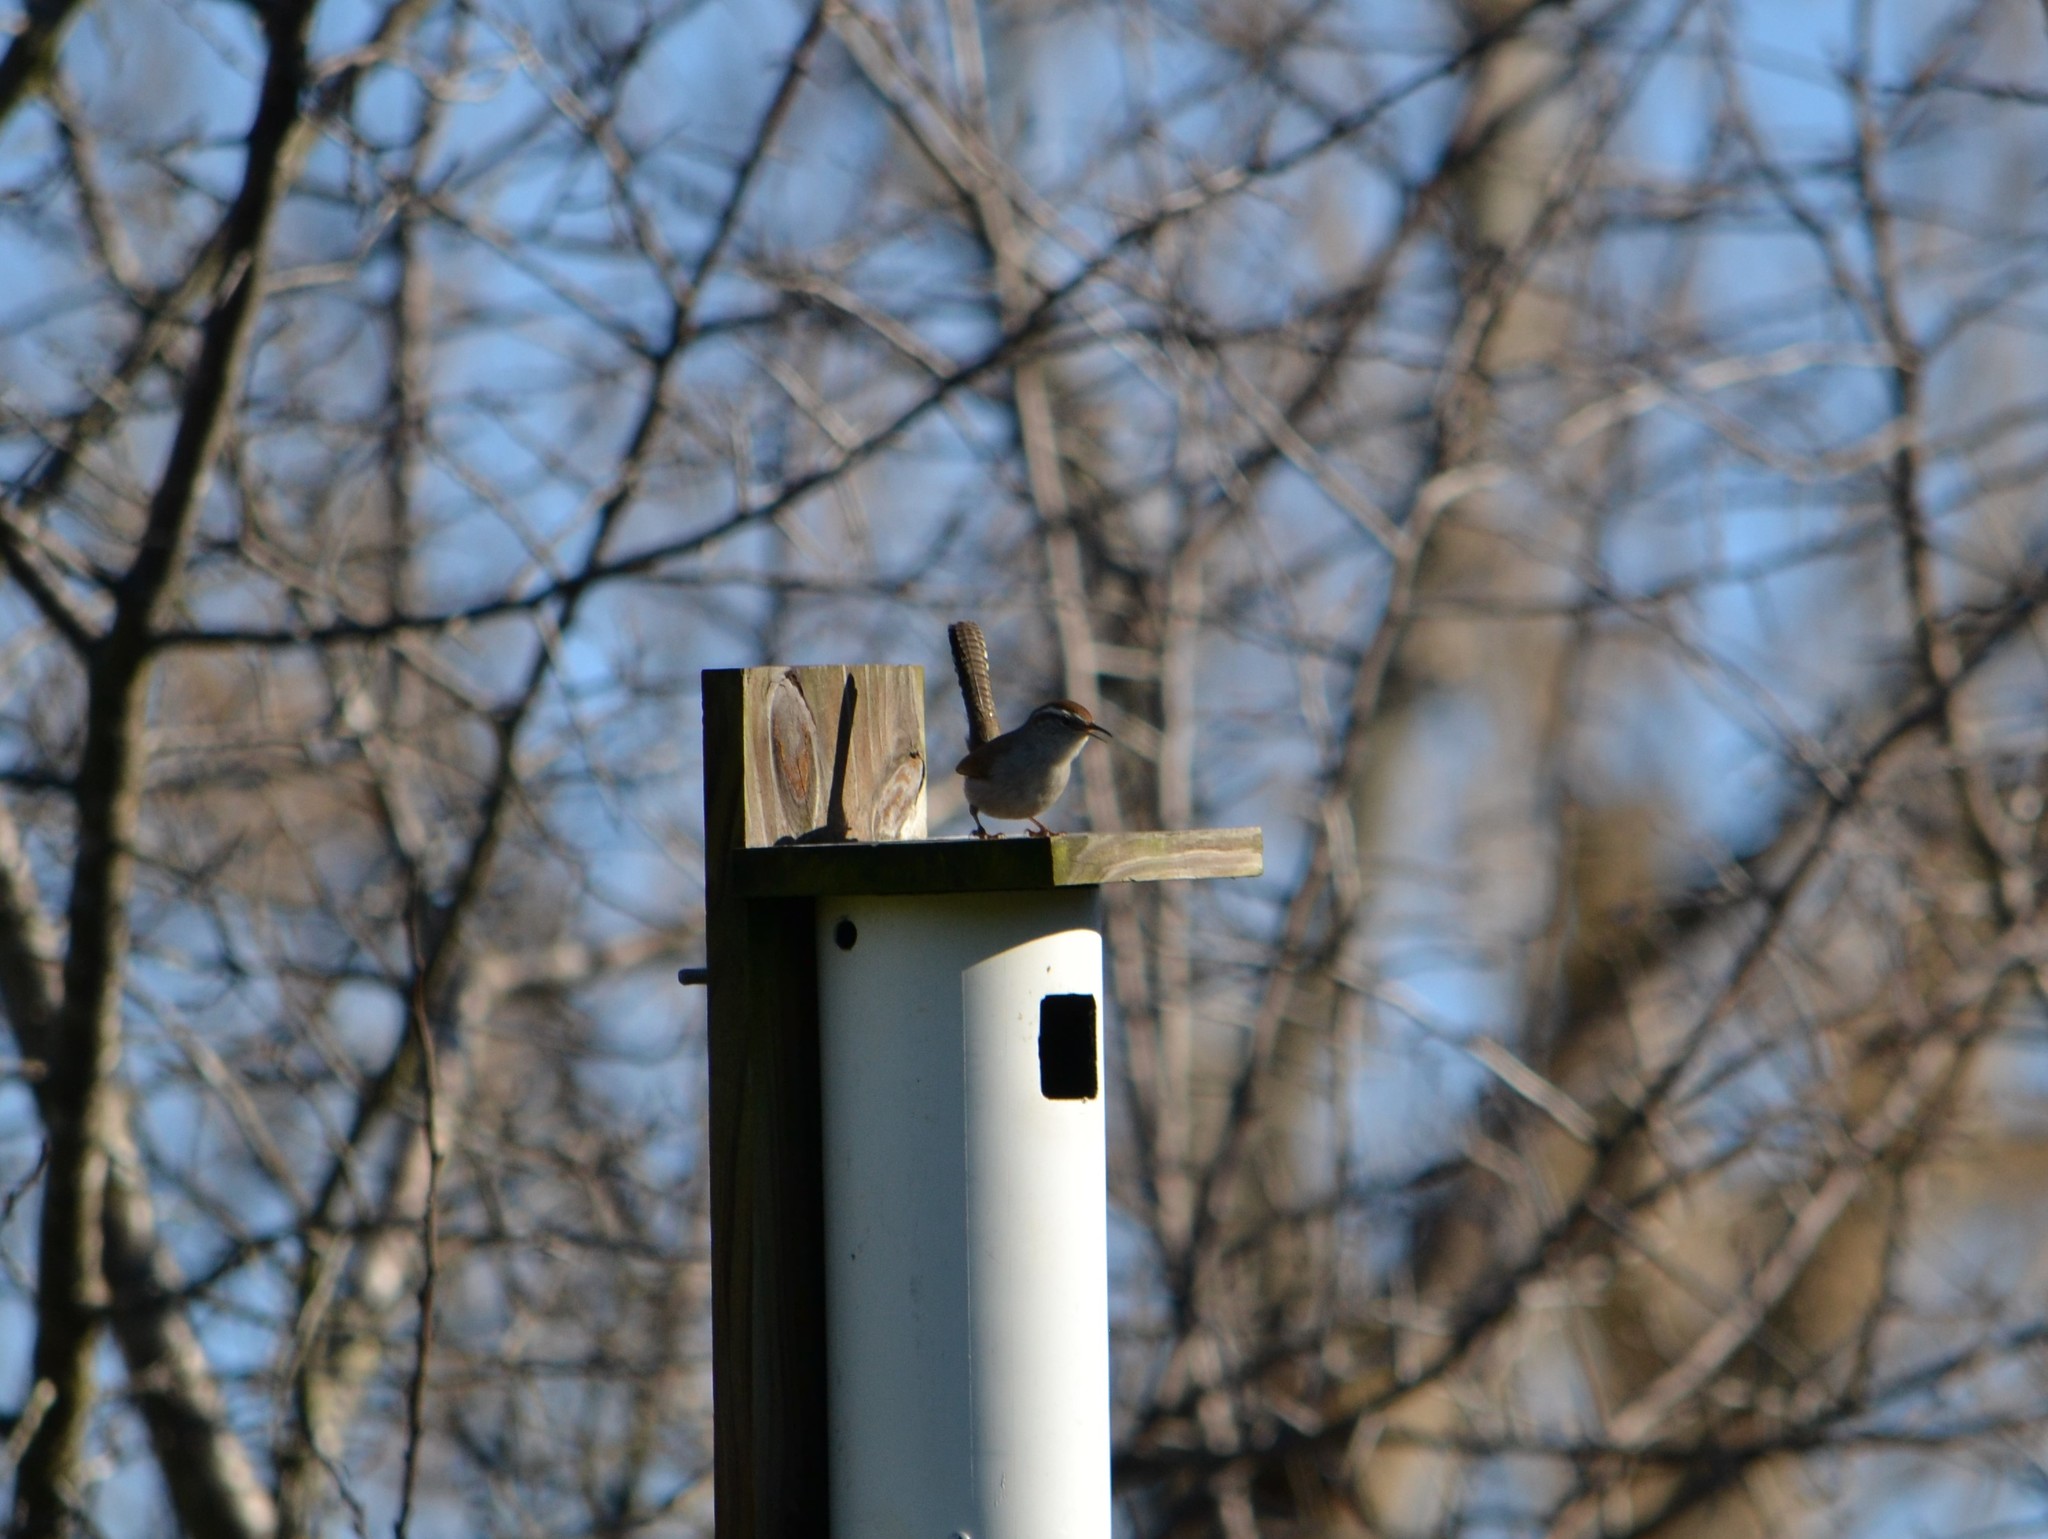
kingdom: Animalia
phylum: Chordata
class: Aves
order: Passeriformes
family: Troglodytidae
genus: Thryomanes
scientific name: Thryomanes bewickii
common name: Bewick's wren
